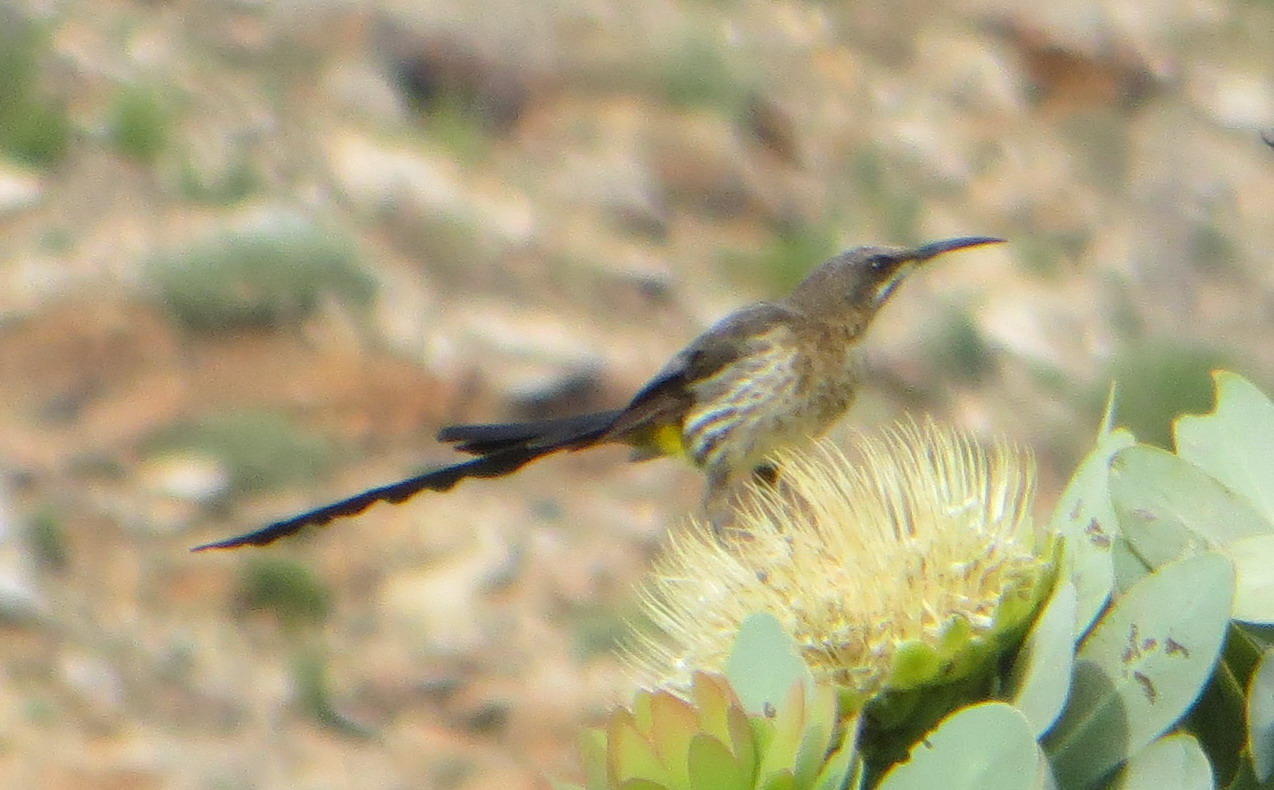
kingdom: Animalia
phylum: Chordata
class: Aves
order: Passeriformes
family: Promeropidae
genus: Promerops
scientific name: Promerops cafer
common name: Cape sugarbird
